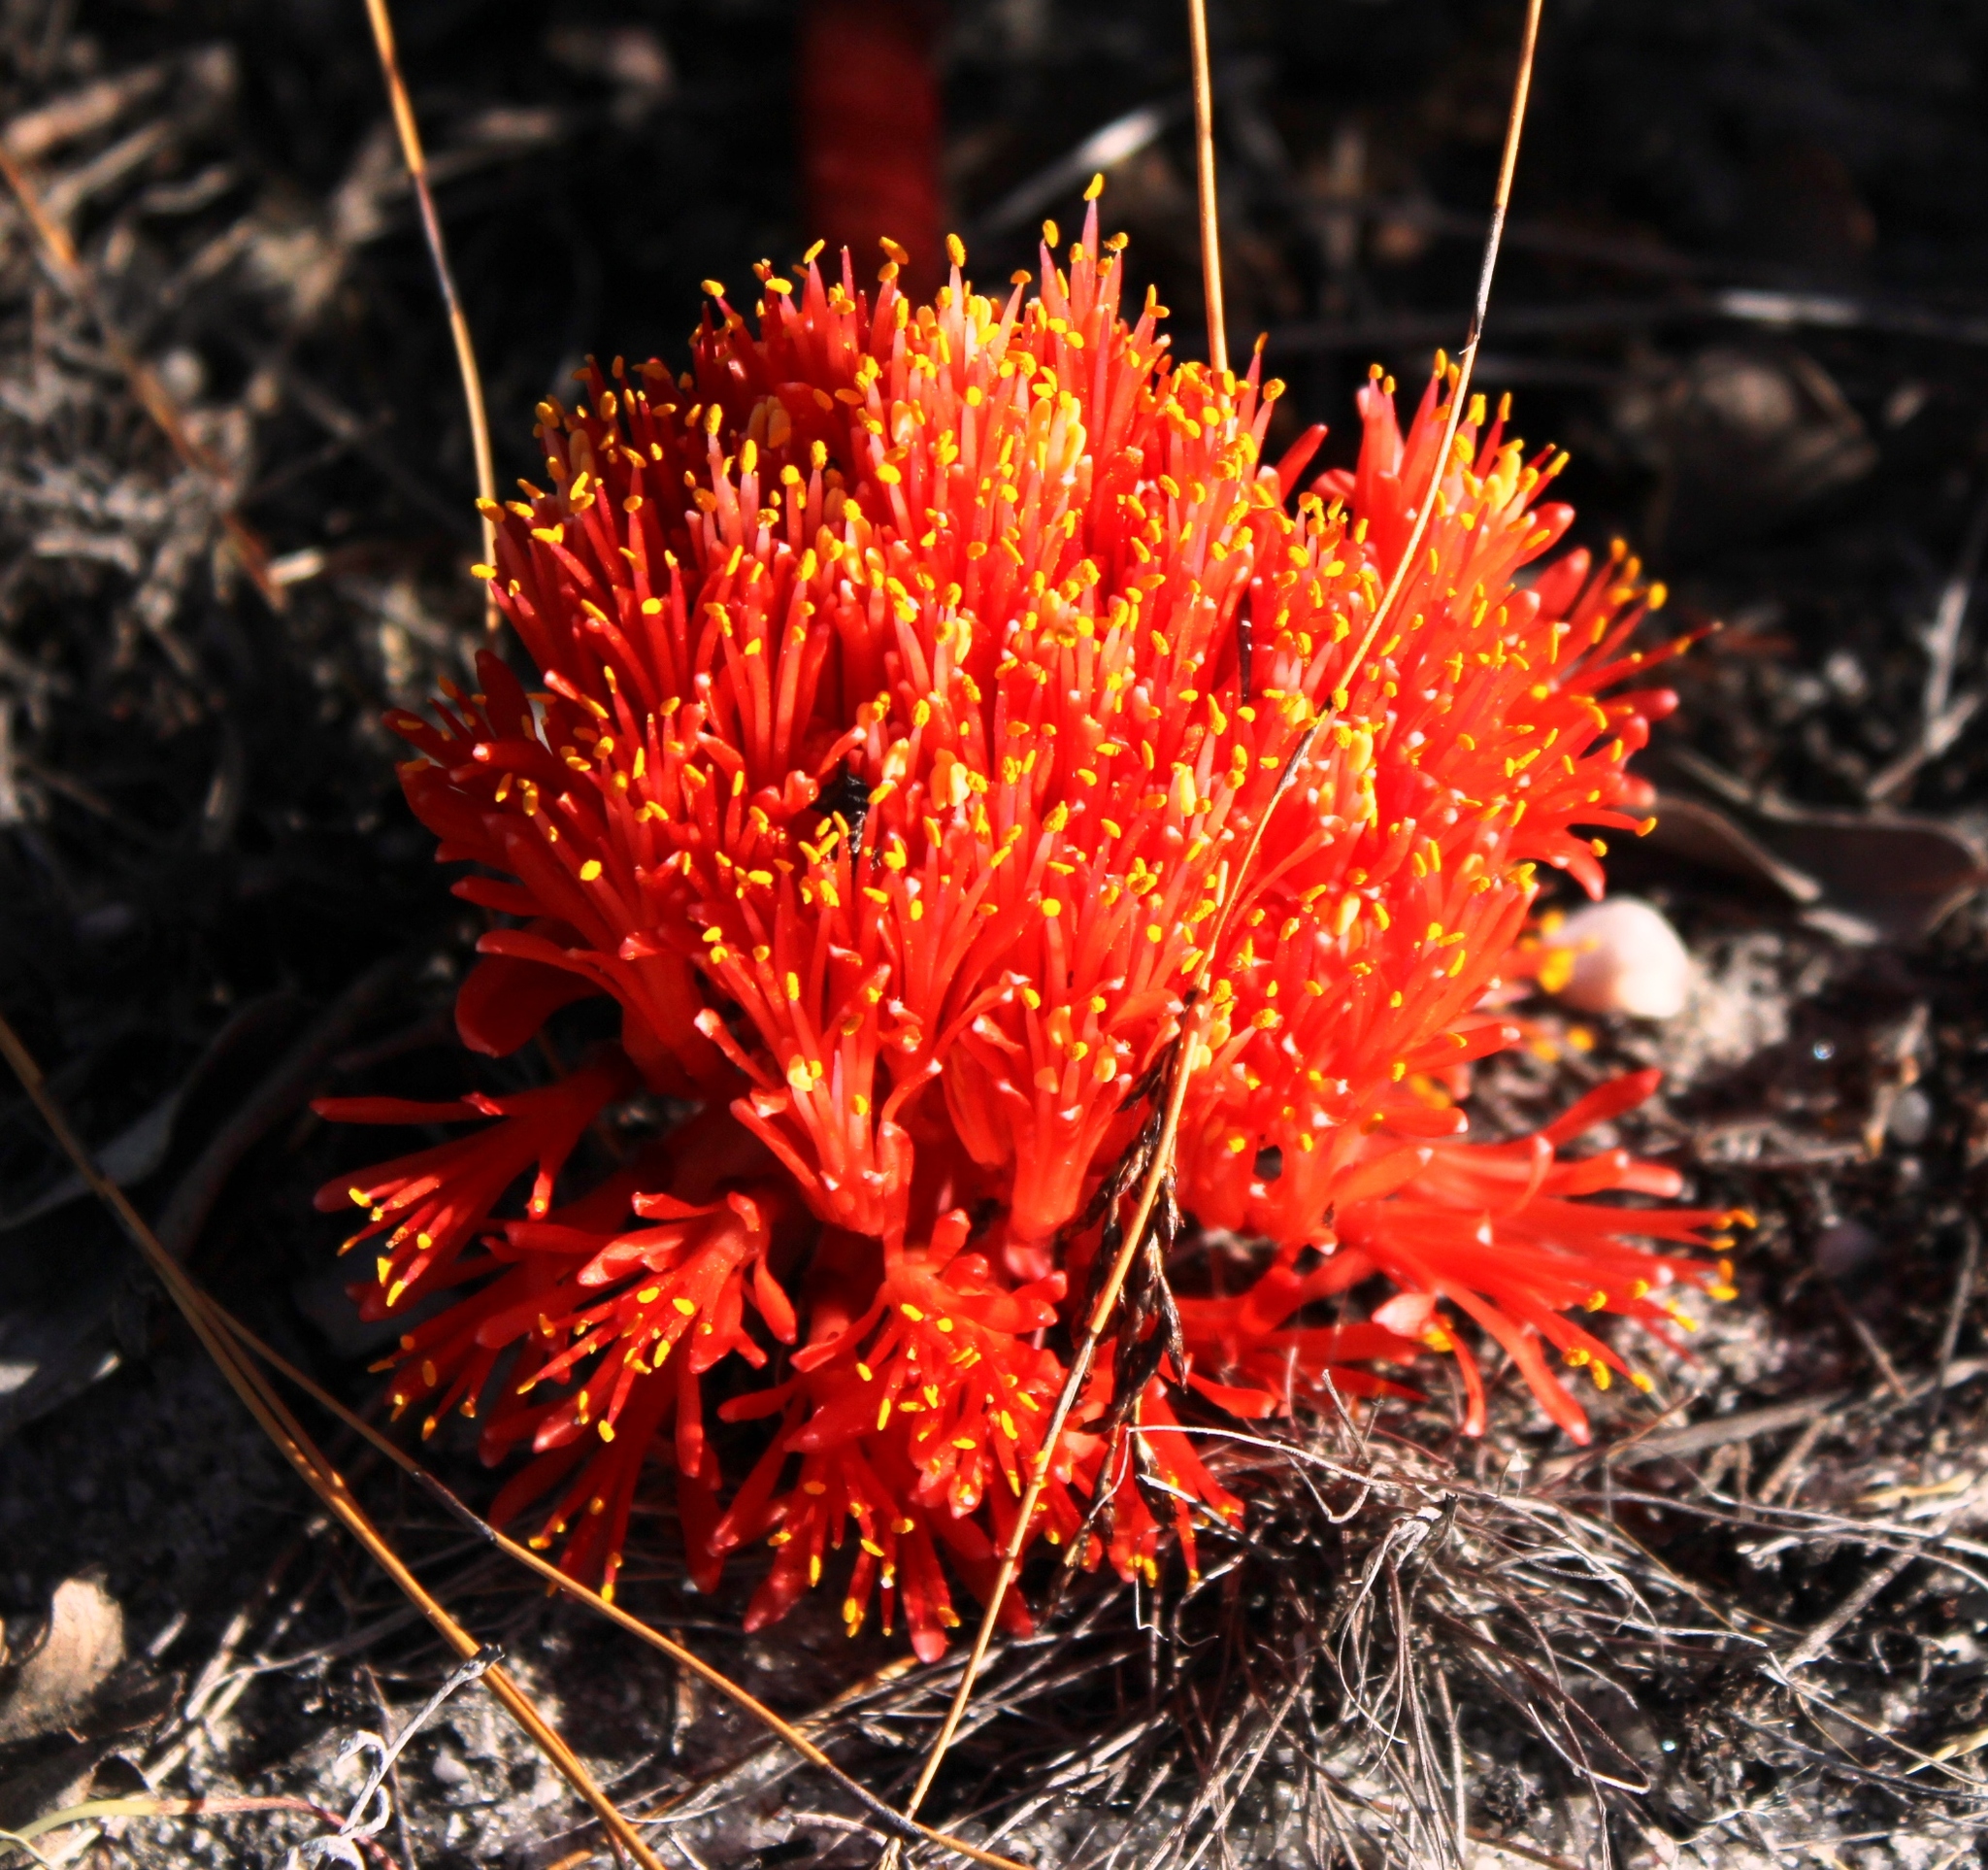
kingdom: Plantae
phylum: Tracheophyta
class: Liliopsida
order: Asparagales
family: Amaryllidaceae
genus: Haemanthus
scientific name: Haemanthus sanguineus
